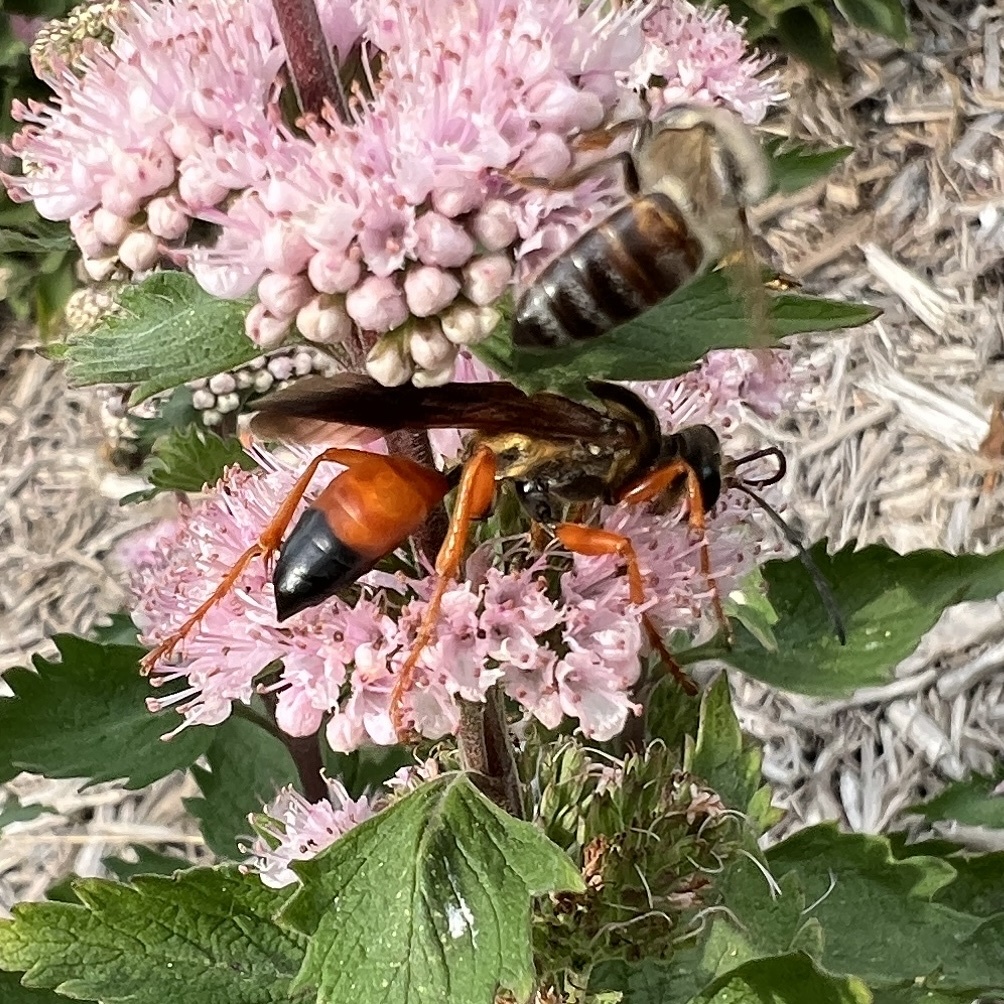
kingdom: Animalia
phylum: Arthropoda
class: Insecta
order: Hymenoptera
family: Sphecidae
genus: Sphex
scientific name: Sphex ichneumoneus
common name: Great golden digger wasp
